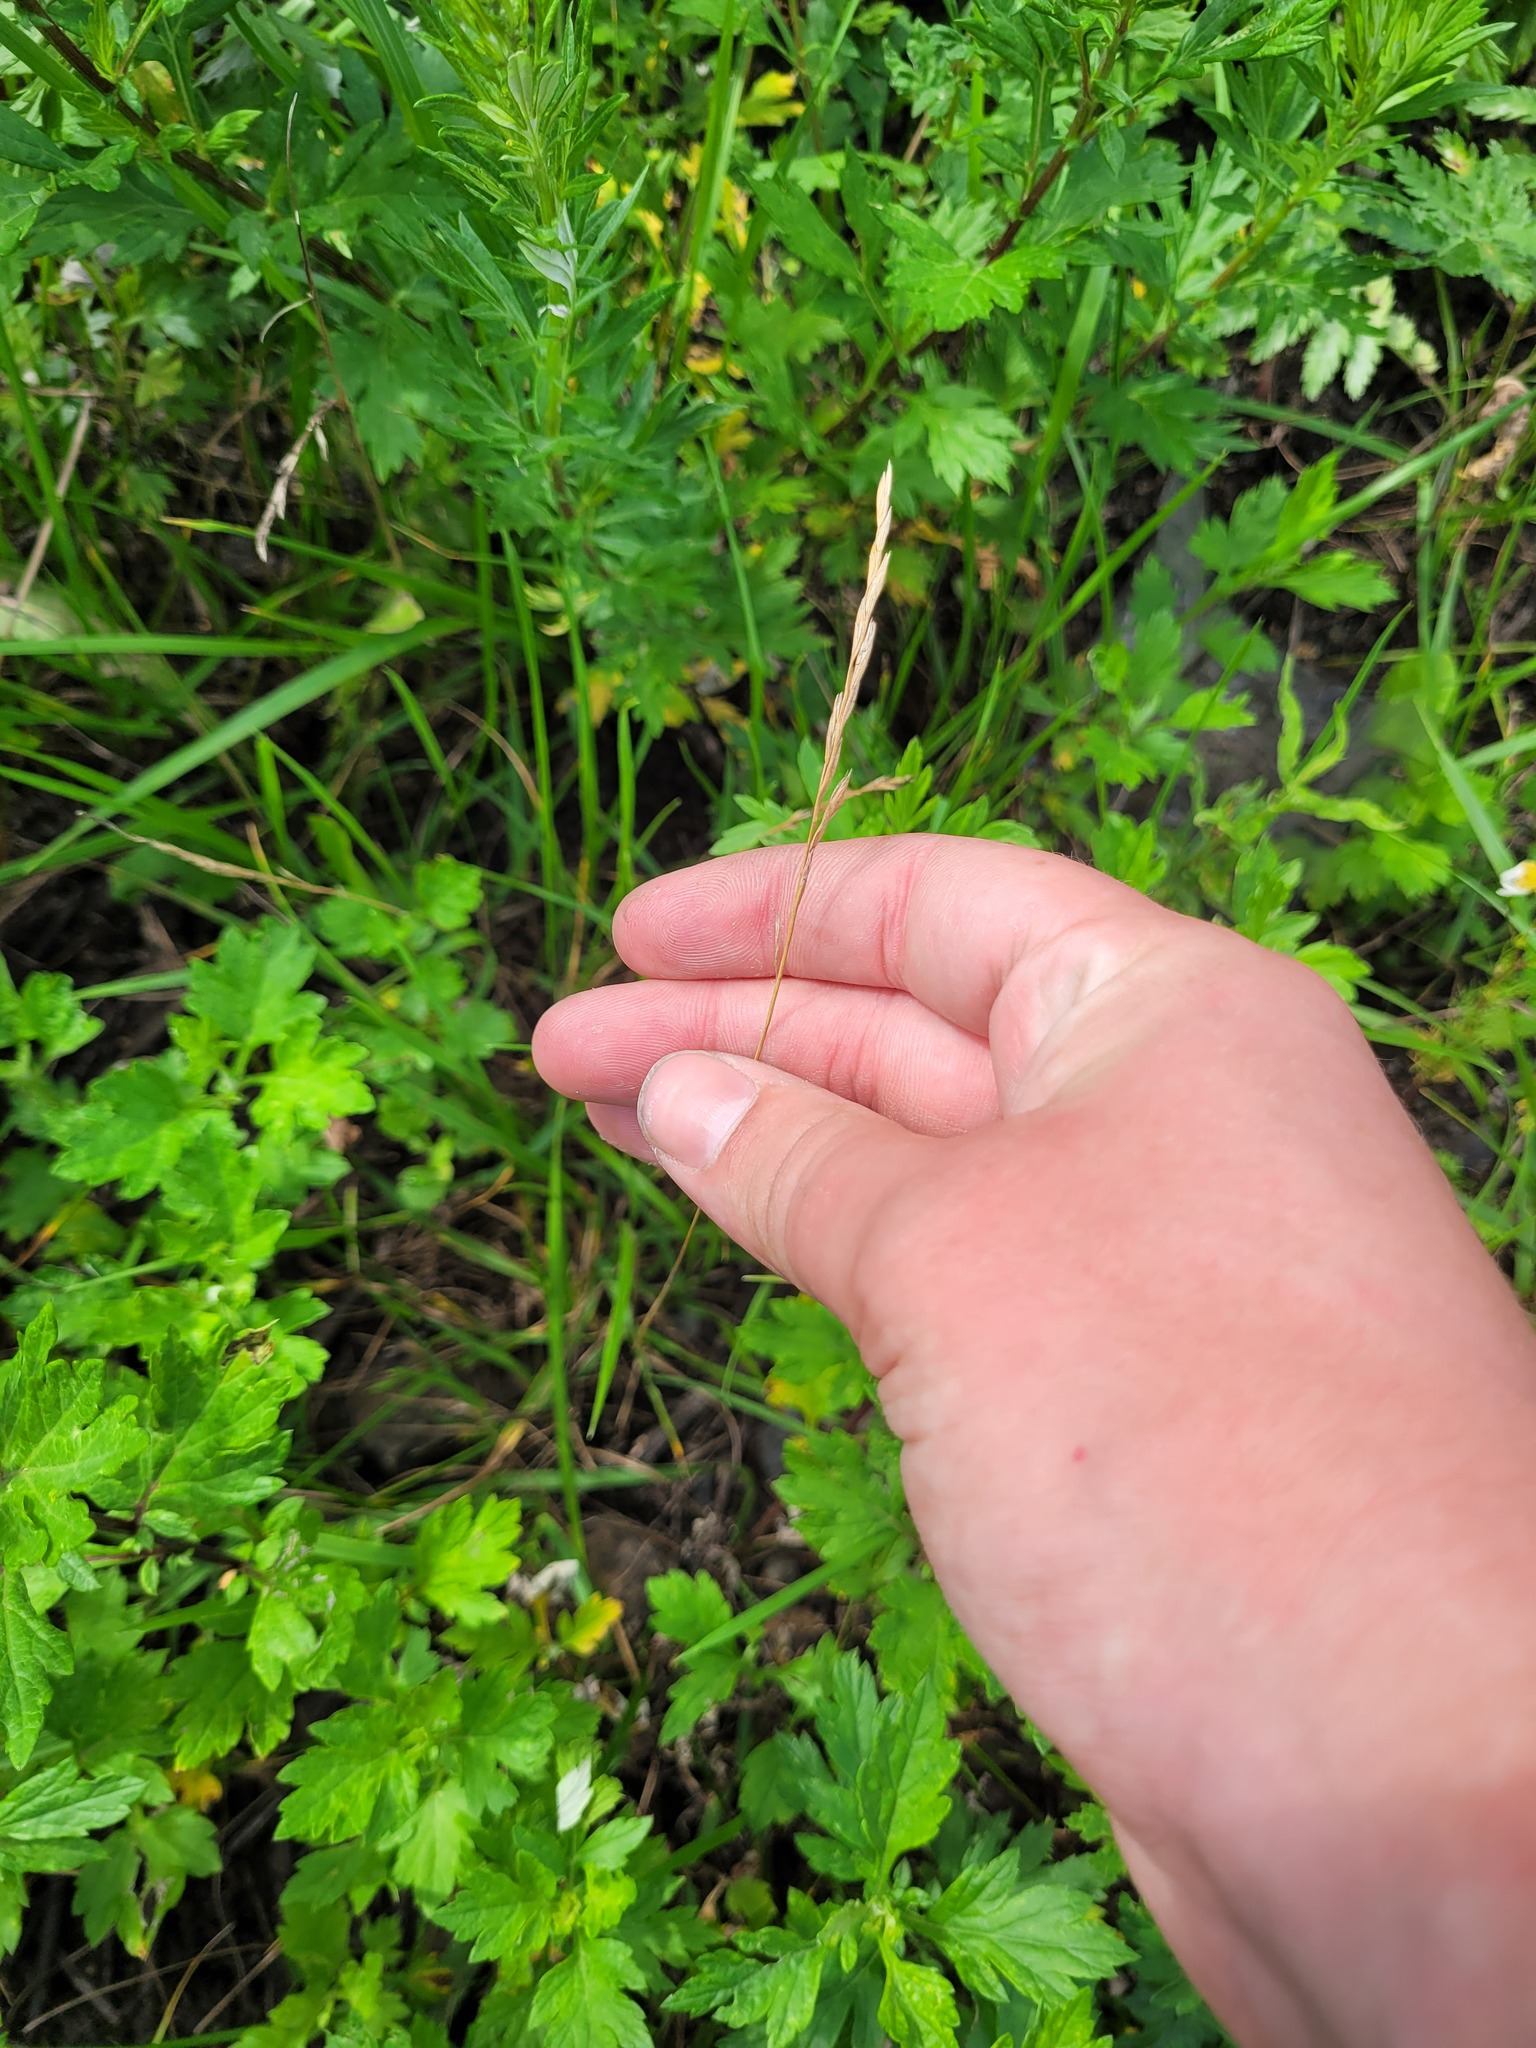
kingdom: Plantae
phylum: Tracheophyta
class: Liliopsida
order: Poales
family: Poaceae
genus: Lolium
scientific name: Lolium pratense
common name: Dover grass
